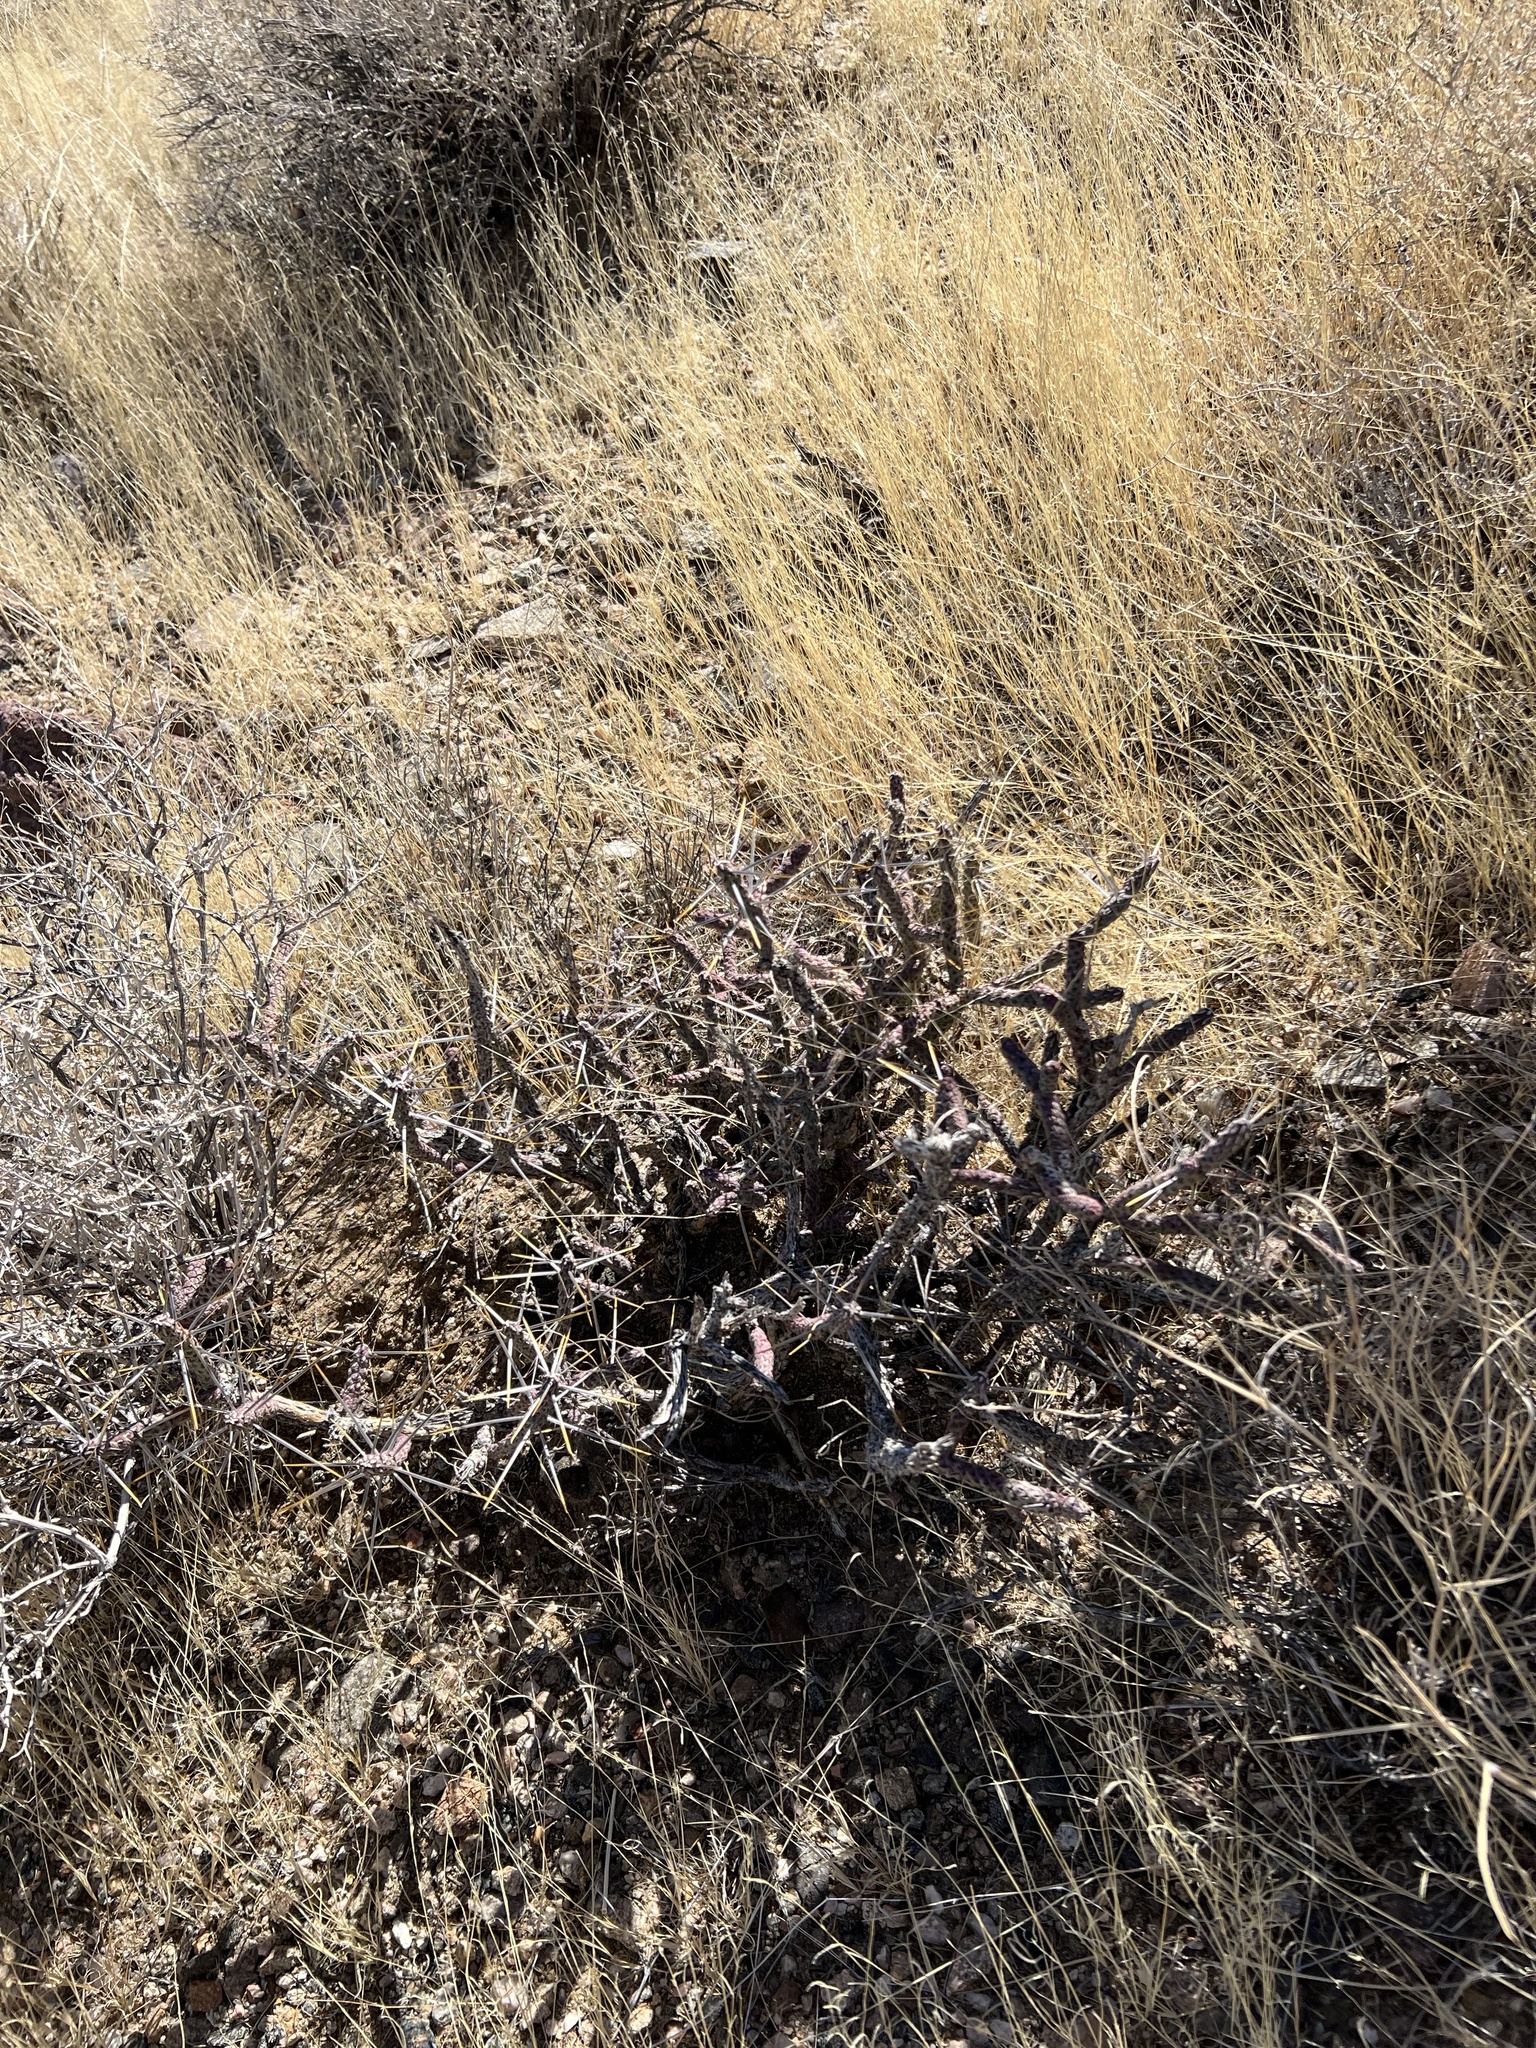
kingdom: Plantae
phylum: Tracheophyta
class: Magnoliopsida
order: Caryophyllales
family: Cactaceae
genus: Cylindropuntia
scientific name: Cylindropuntia ramosissima
